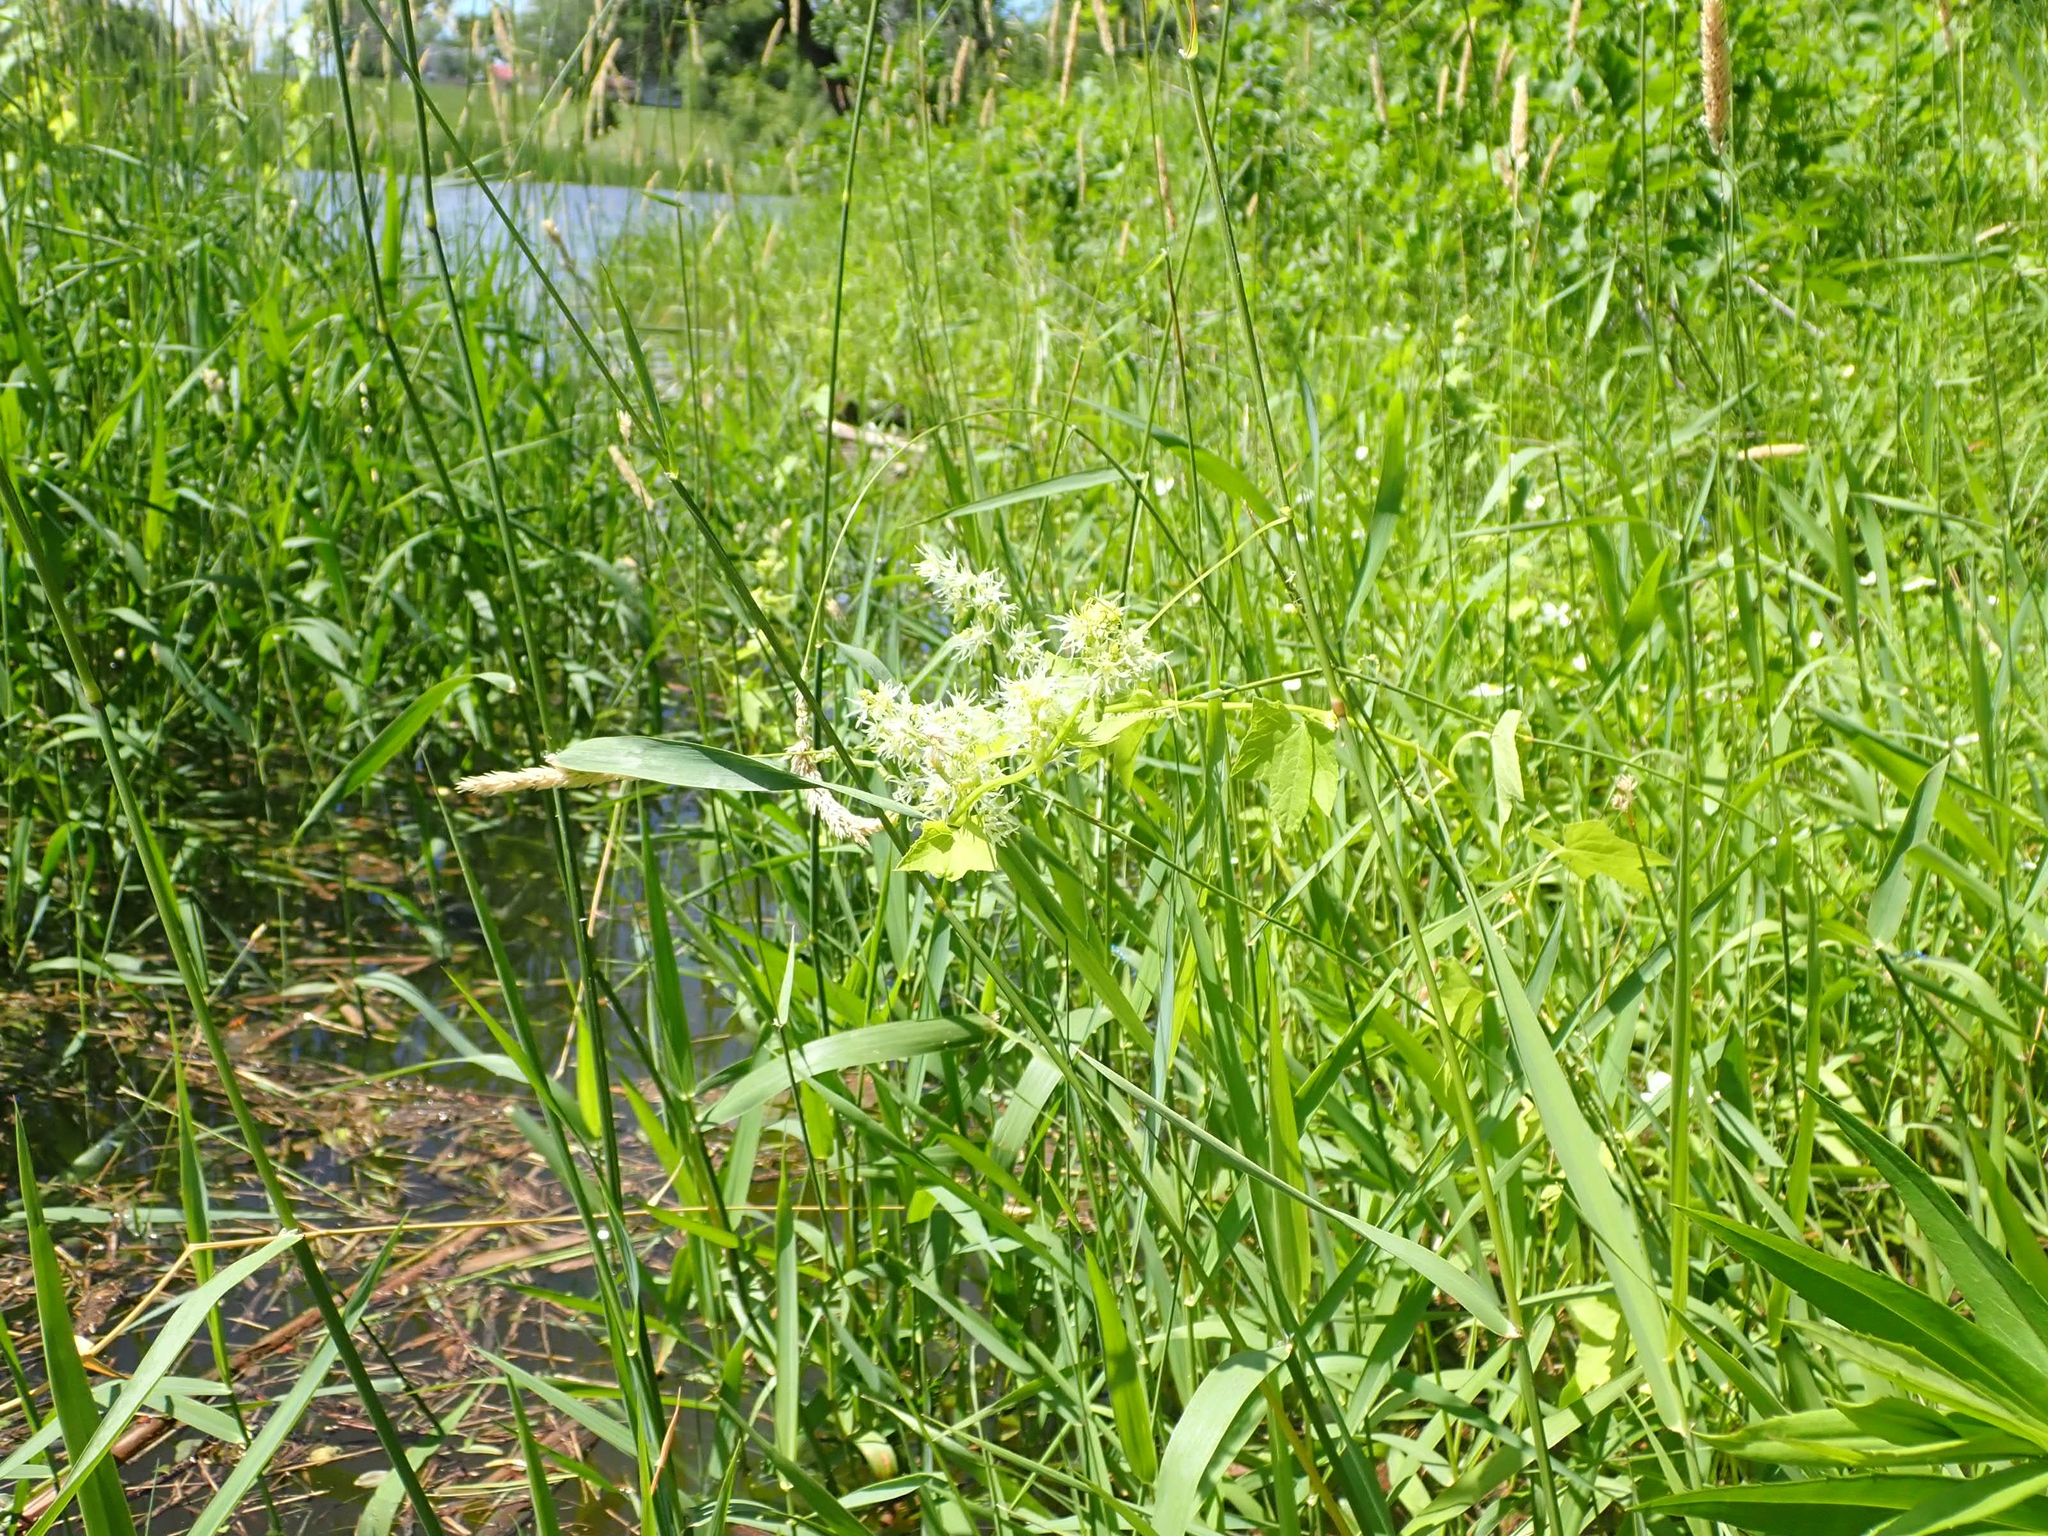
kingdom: Plantae
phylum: Tracheophyta
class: Magnoliopsida
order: Cucurbitales
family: Cucurbitaceae
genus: Echinocystis
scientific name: Echinocystis lobata
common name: Wild cucumber
